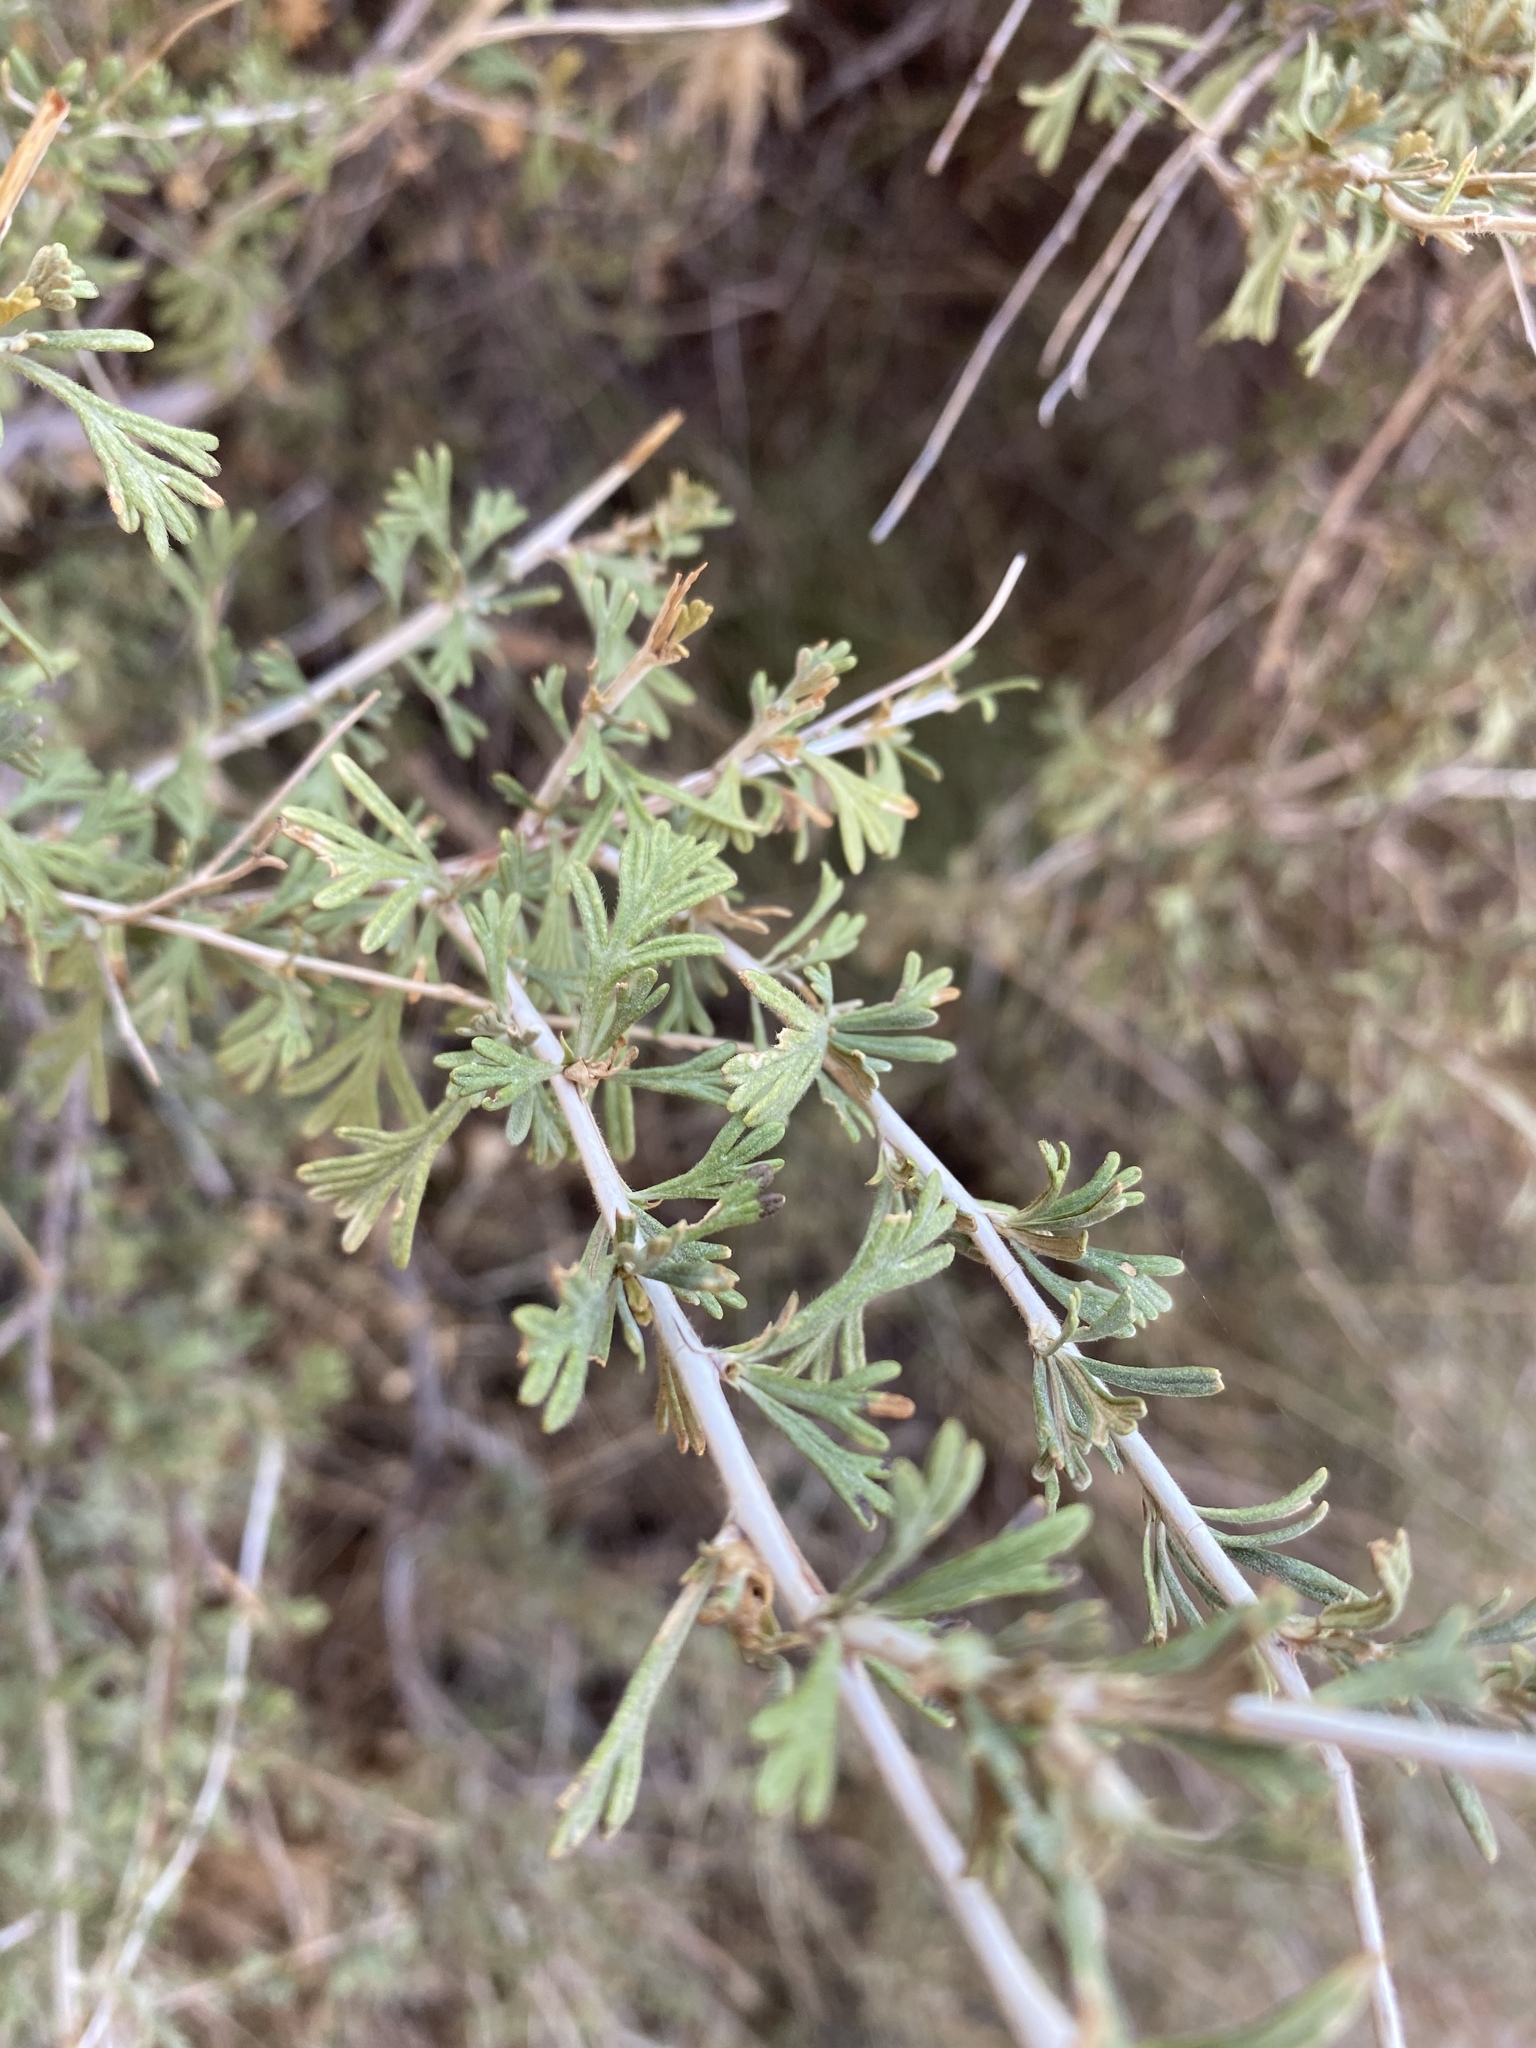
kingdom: Plantae
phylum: Tracheophyta
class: Magnoliopsida
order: Rosales
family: Rosaceae
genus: Fallugia
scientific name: Fallugia paradoxa
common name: Apache-plume
